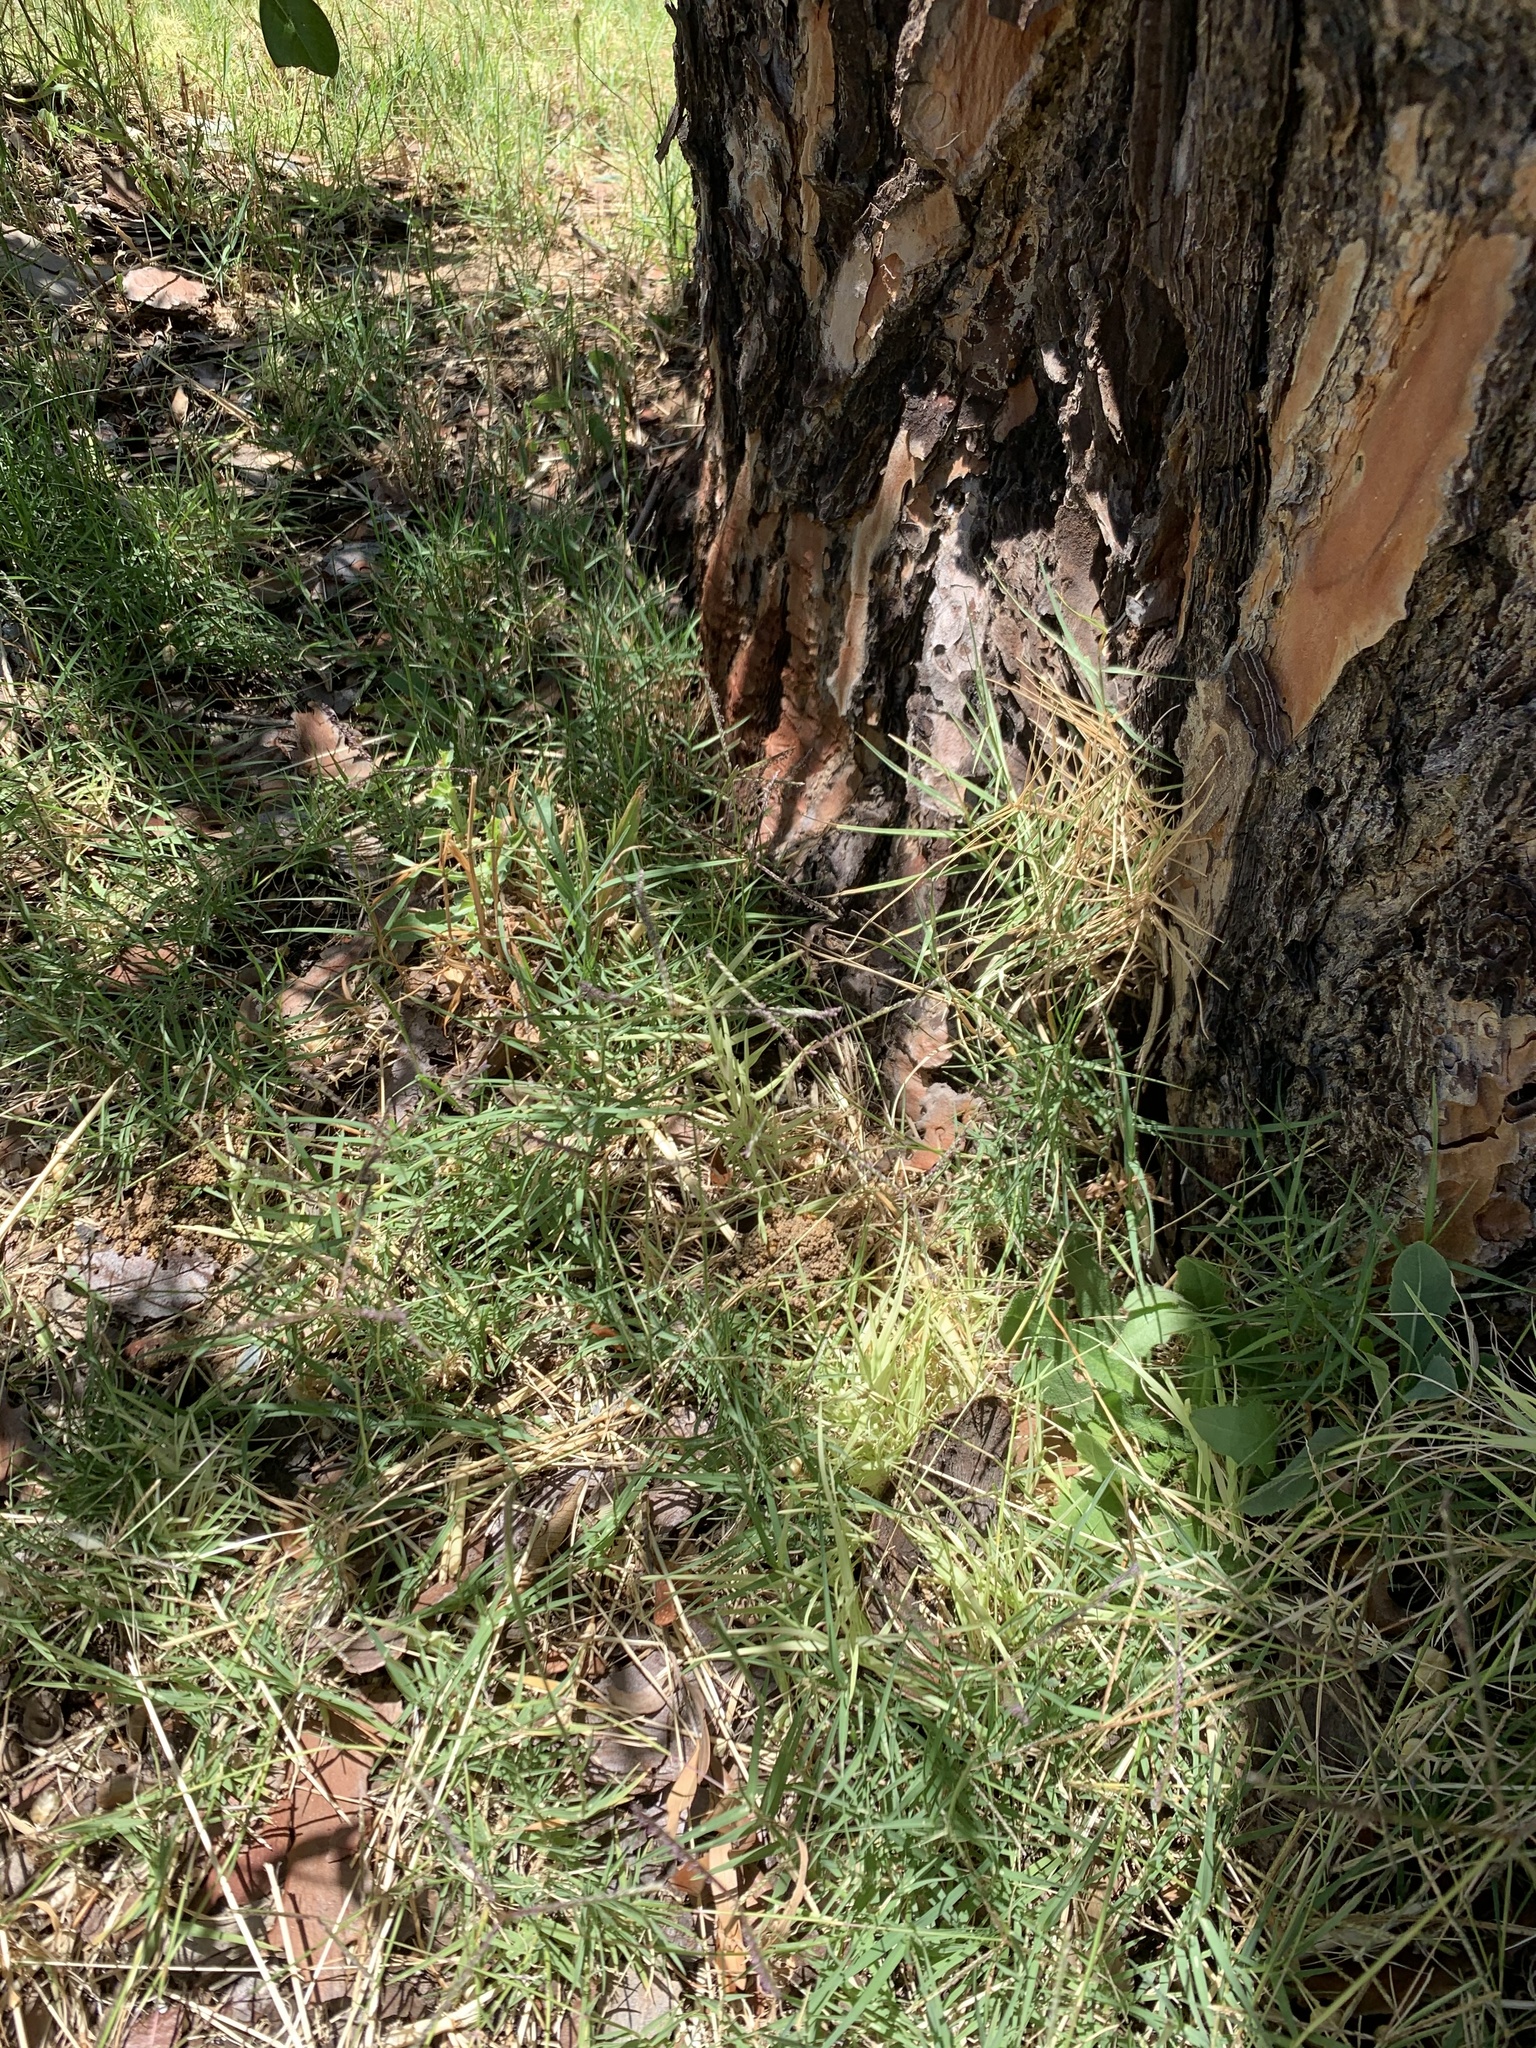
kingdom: Plantae
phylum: Tracheophyta
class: Liliopsida
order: Poales
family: Poaceae
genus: Cynodon
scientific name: Cynodon dactylon
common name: Bermuda grass
